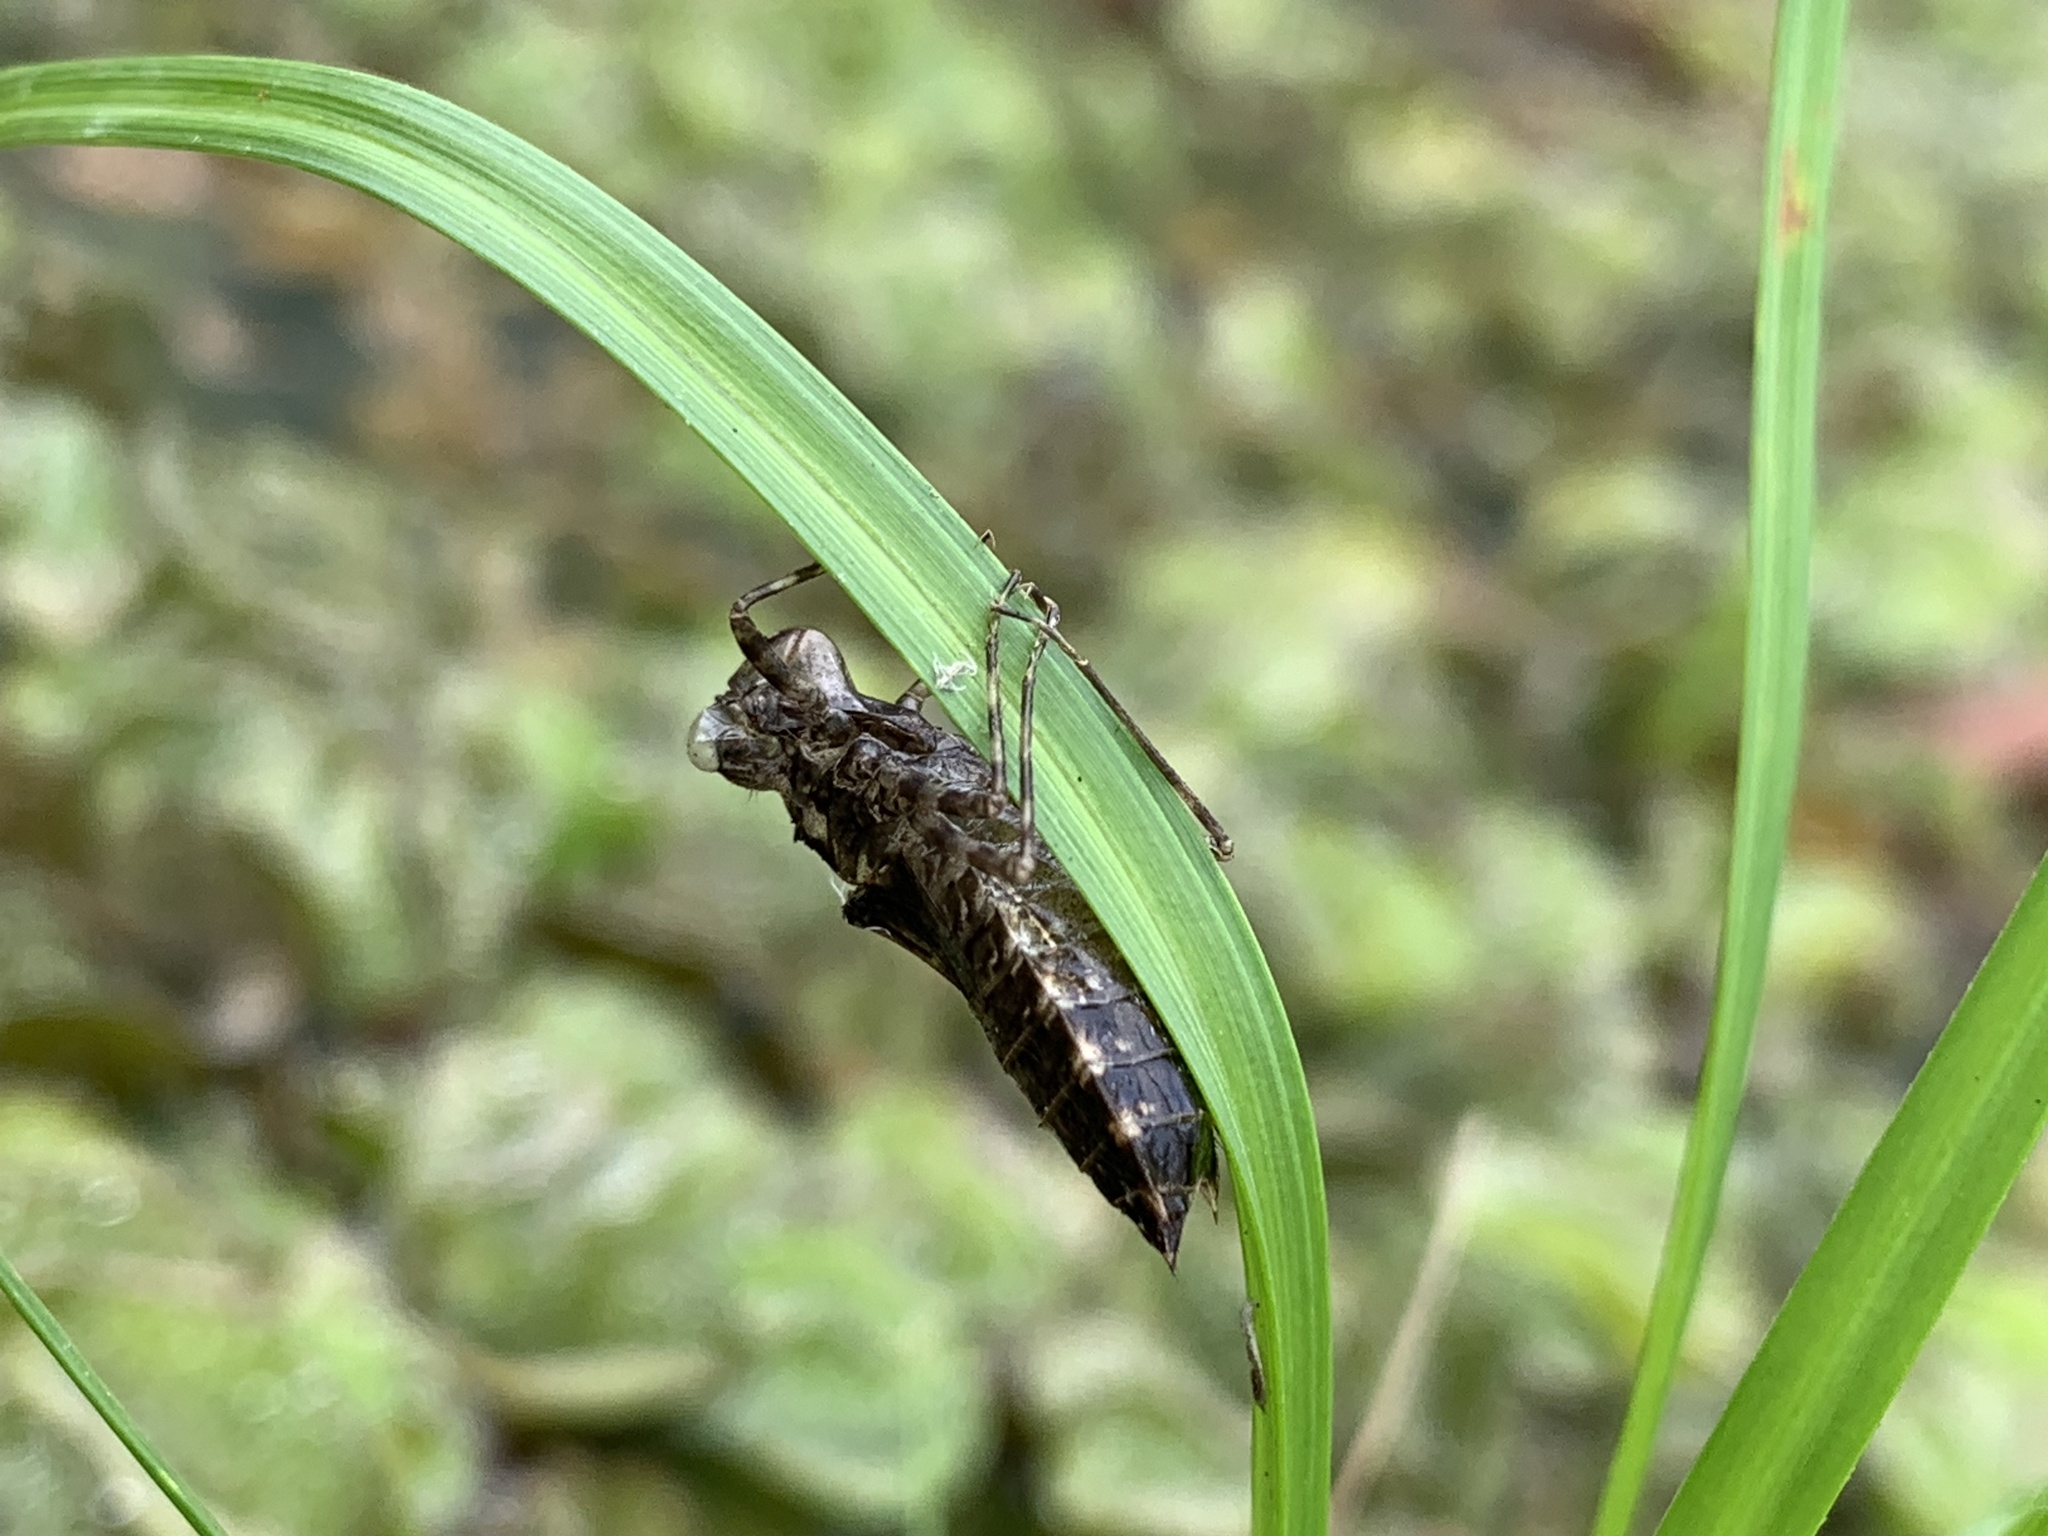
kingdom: Animalia
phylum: Arthropoda
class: Insecta
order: Odonata
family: Libellulidae
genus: Pachydiplax
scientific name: Pachydiplax longipennis
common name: Blue dasher
